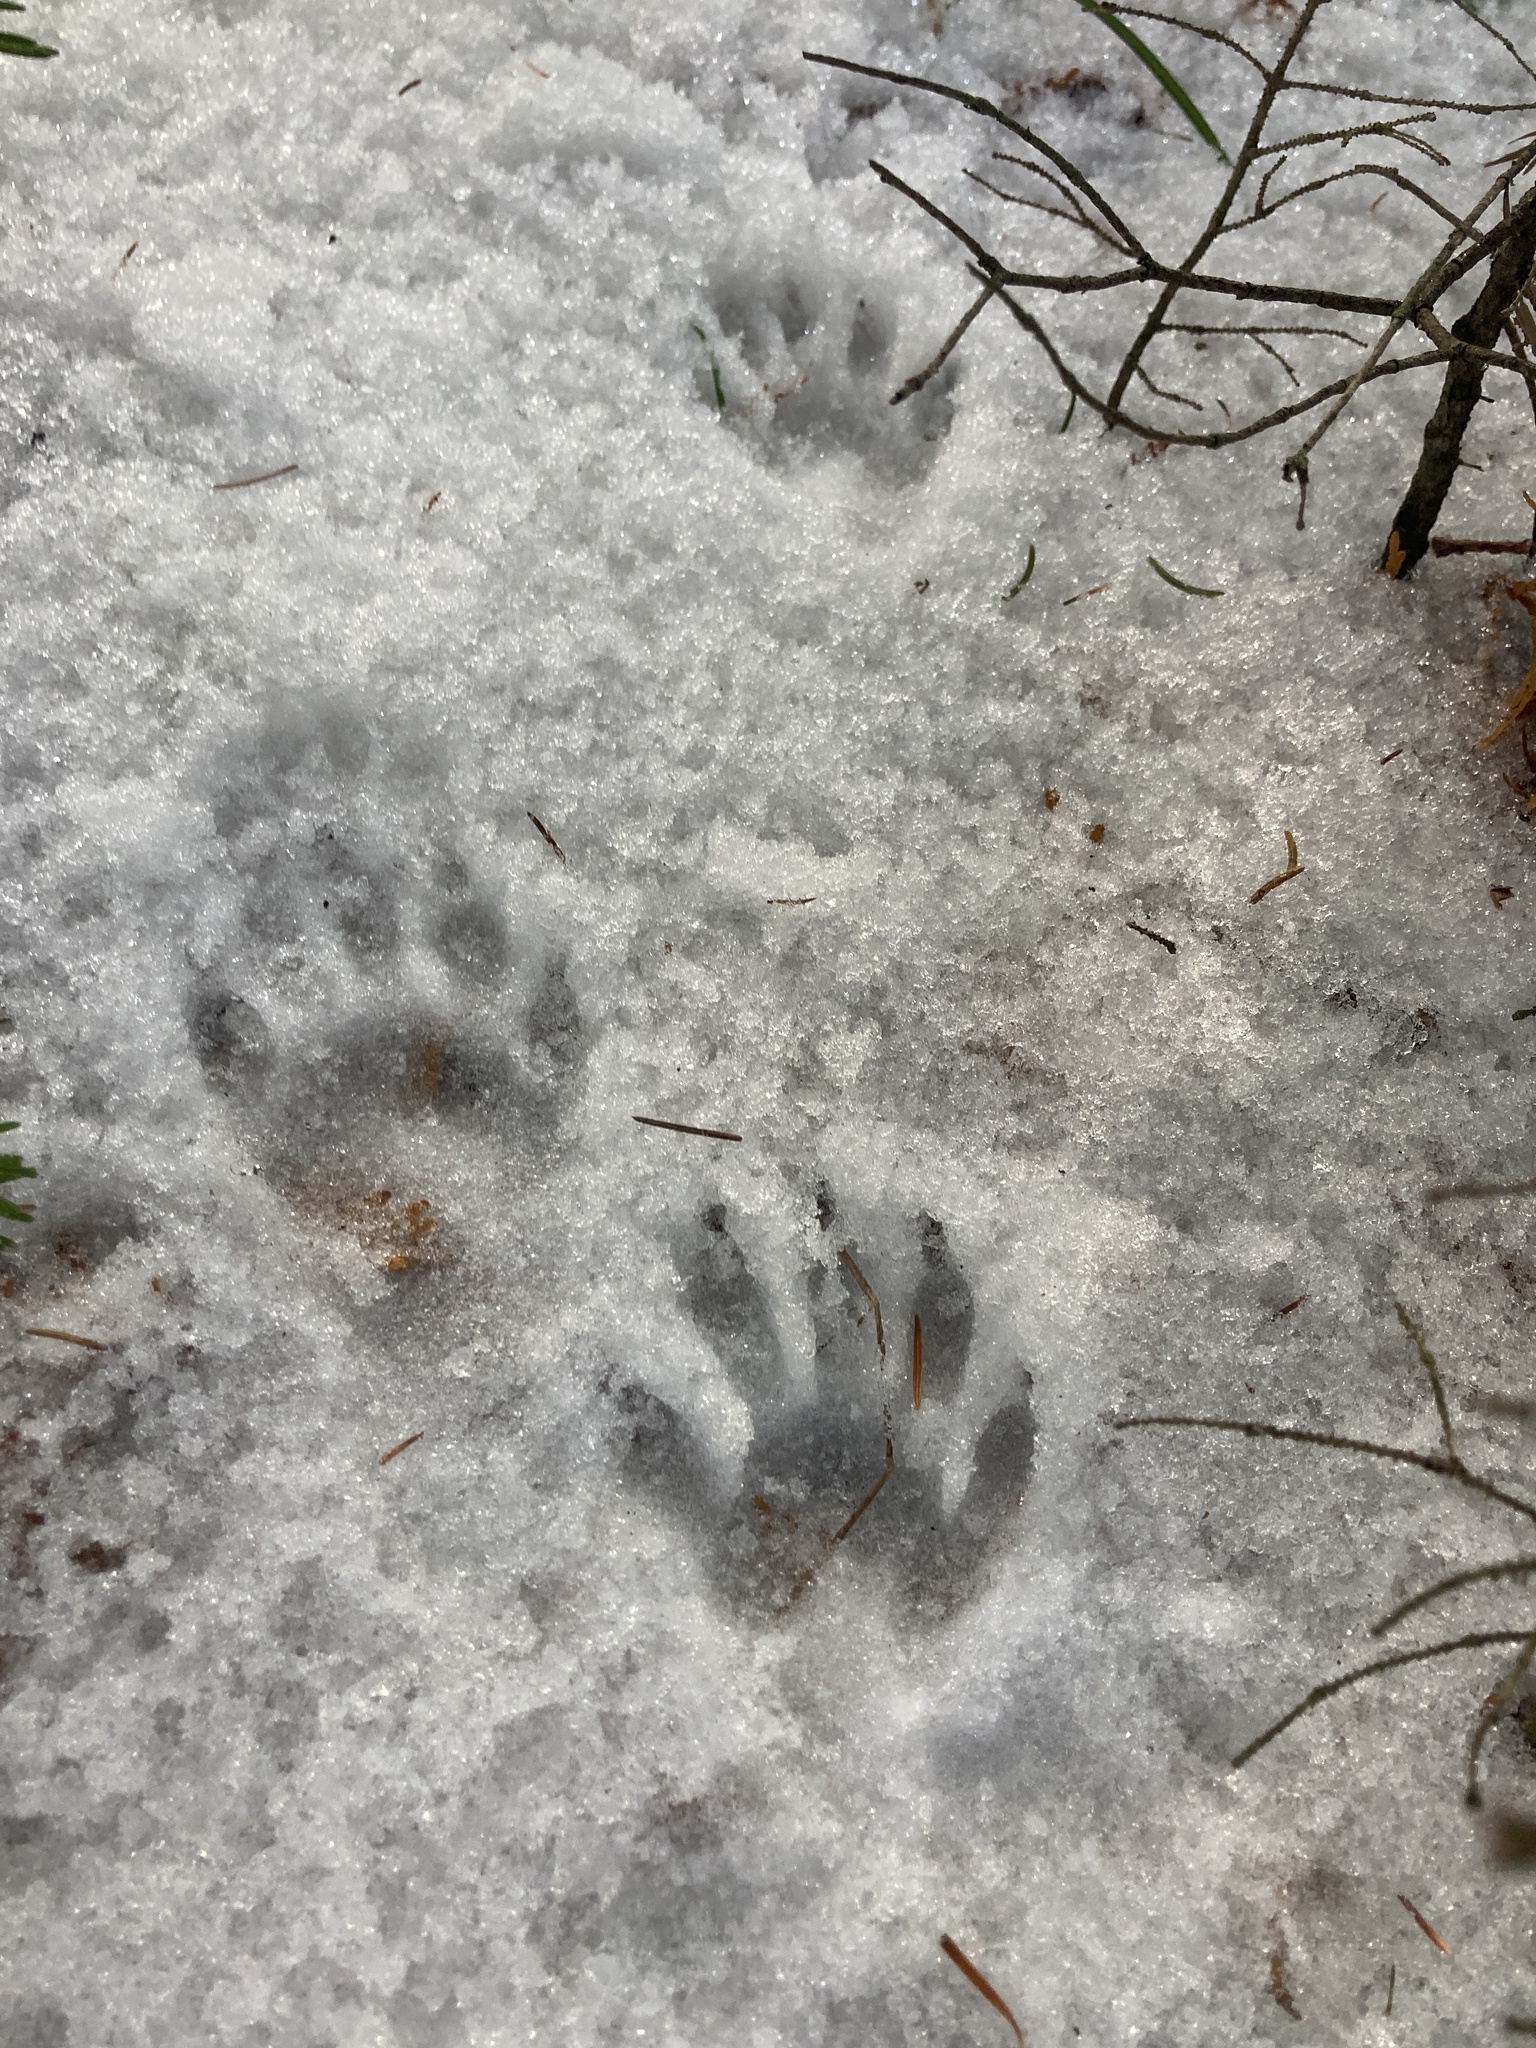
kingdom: Animalia
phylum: Chordata
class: Mammalia
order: Carnivora
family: Procyonidae
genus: Procyon
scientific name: Procyon lotor
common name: Raccoon
